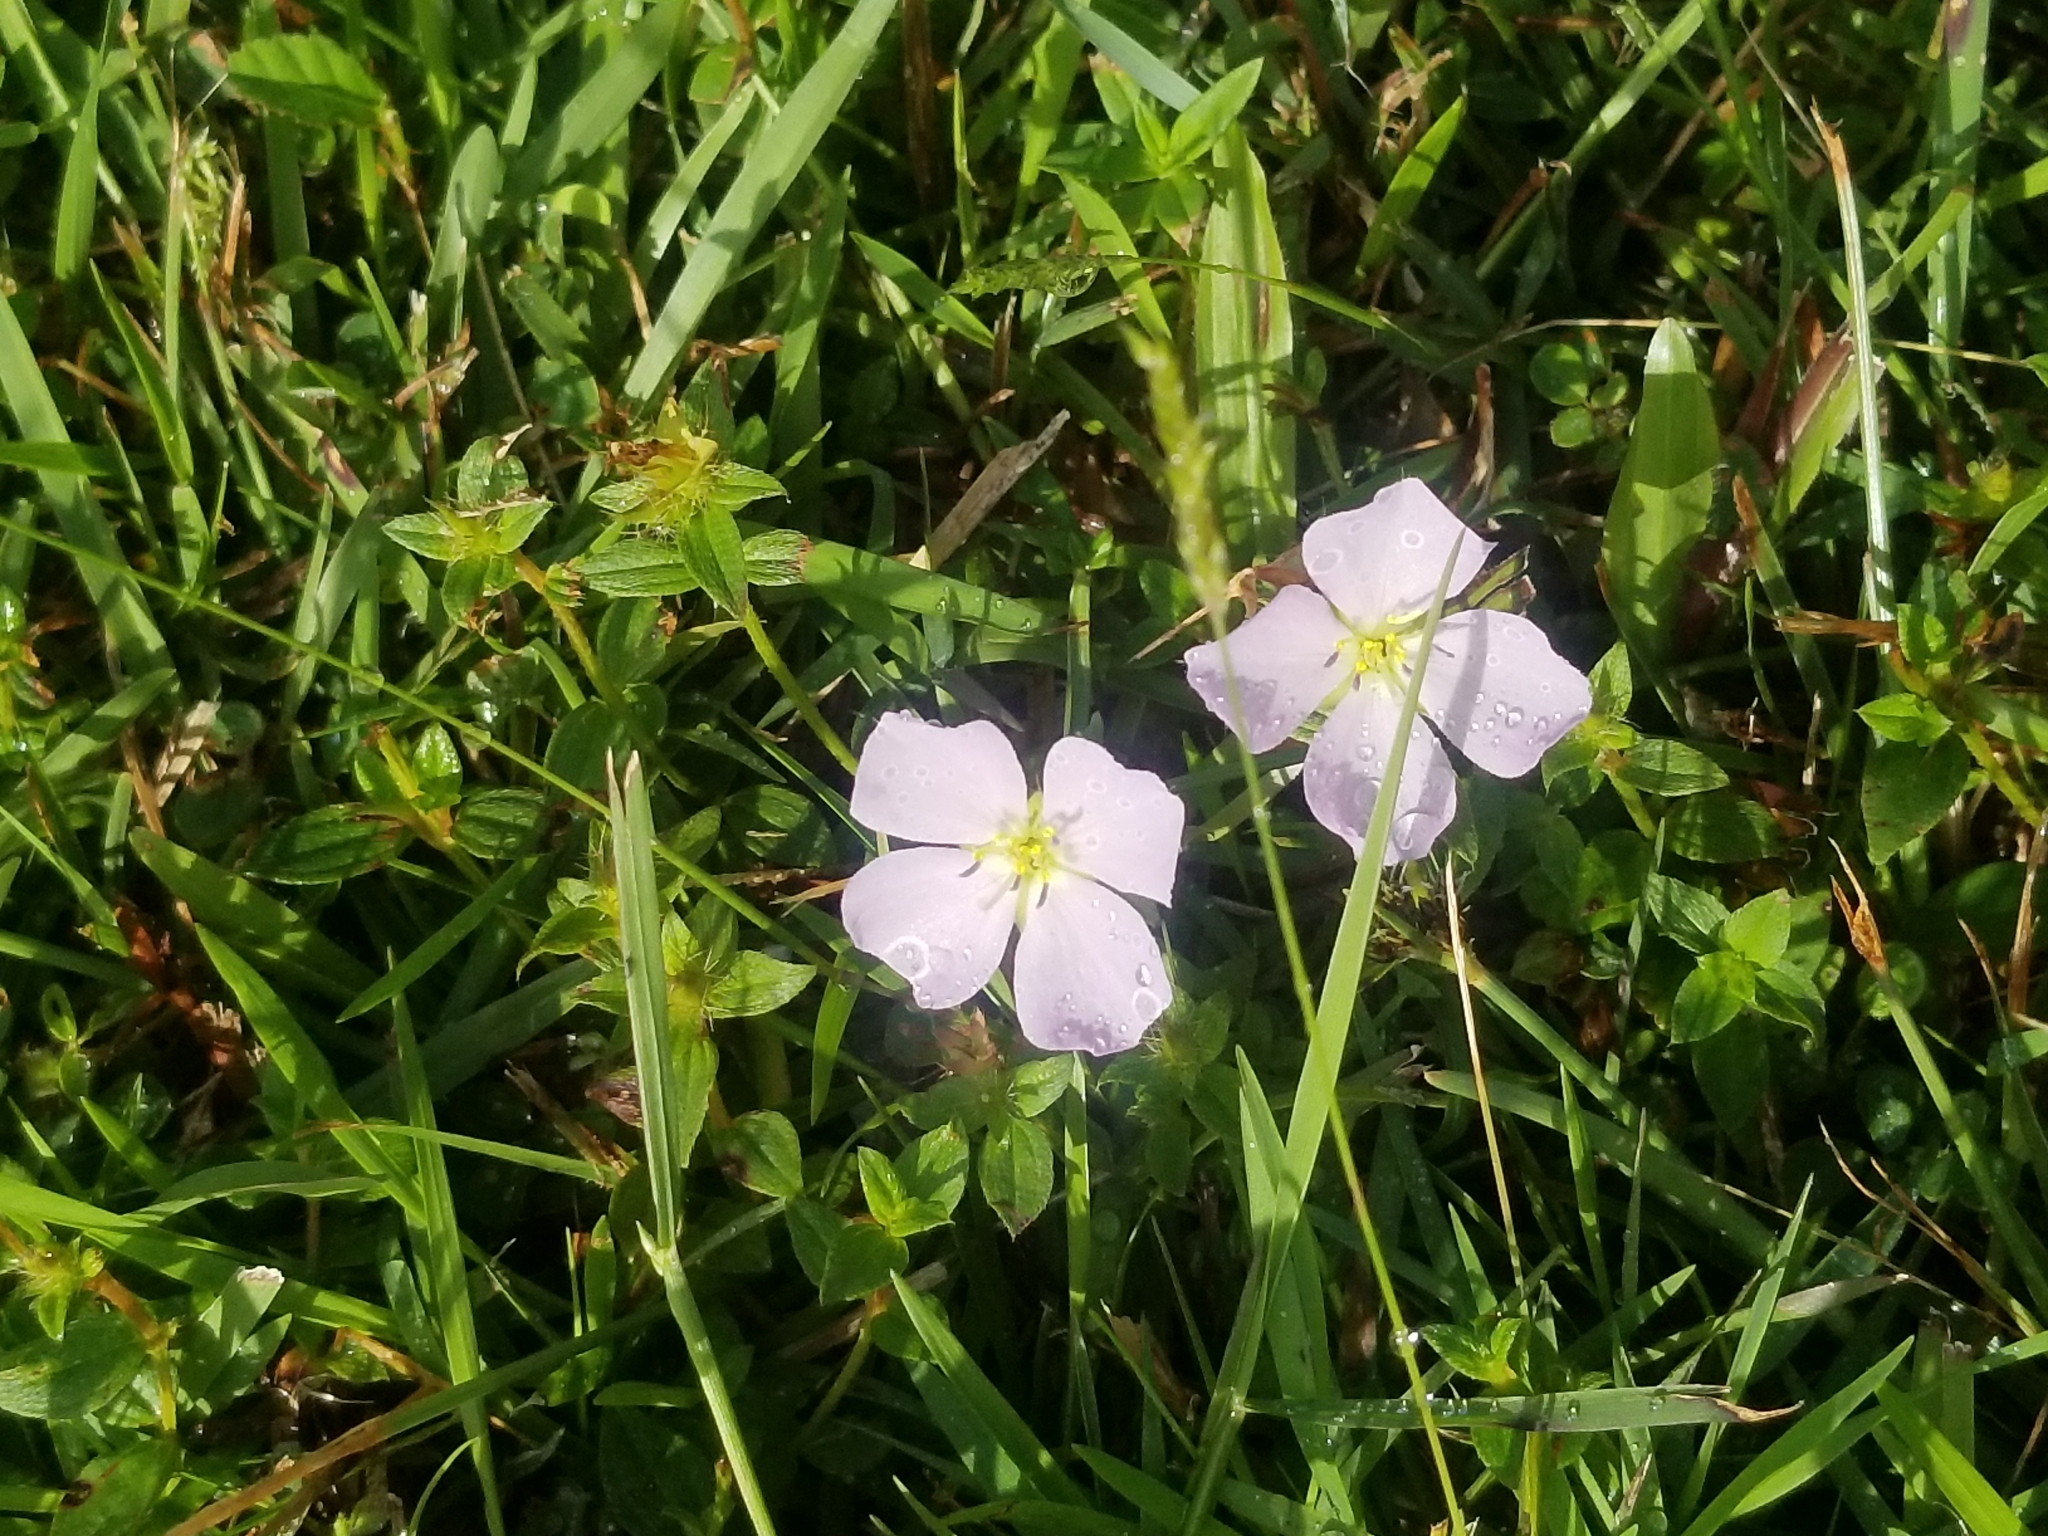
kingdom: Plantae
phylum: Tracheophyta
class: Magnoliopsida
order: Myrtales
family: Melastomataceae
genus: Pterolepis
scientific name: Pterolepis glomerata
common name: False meadowbeauty
